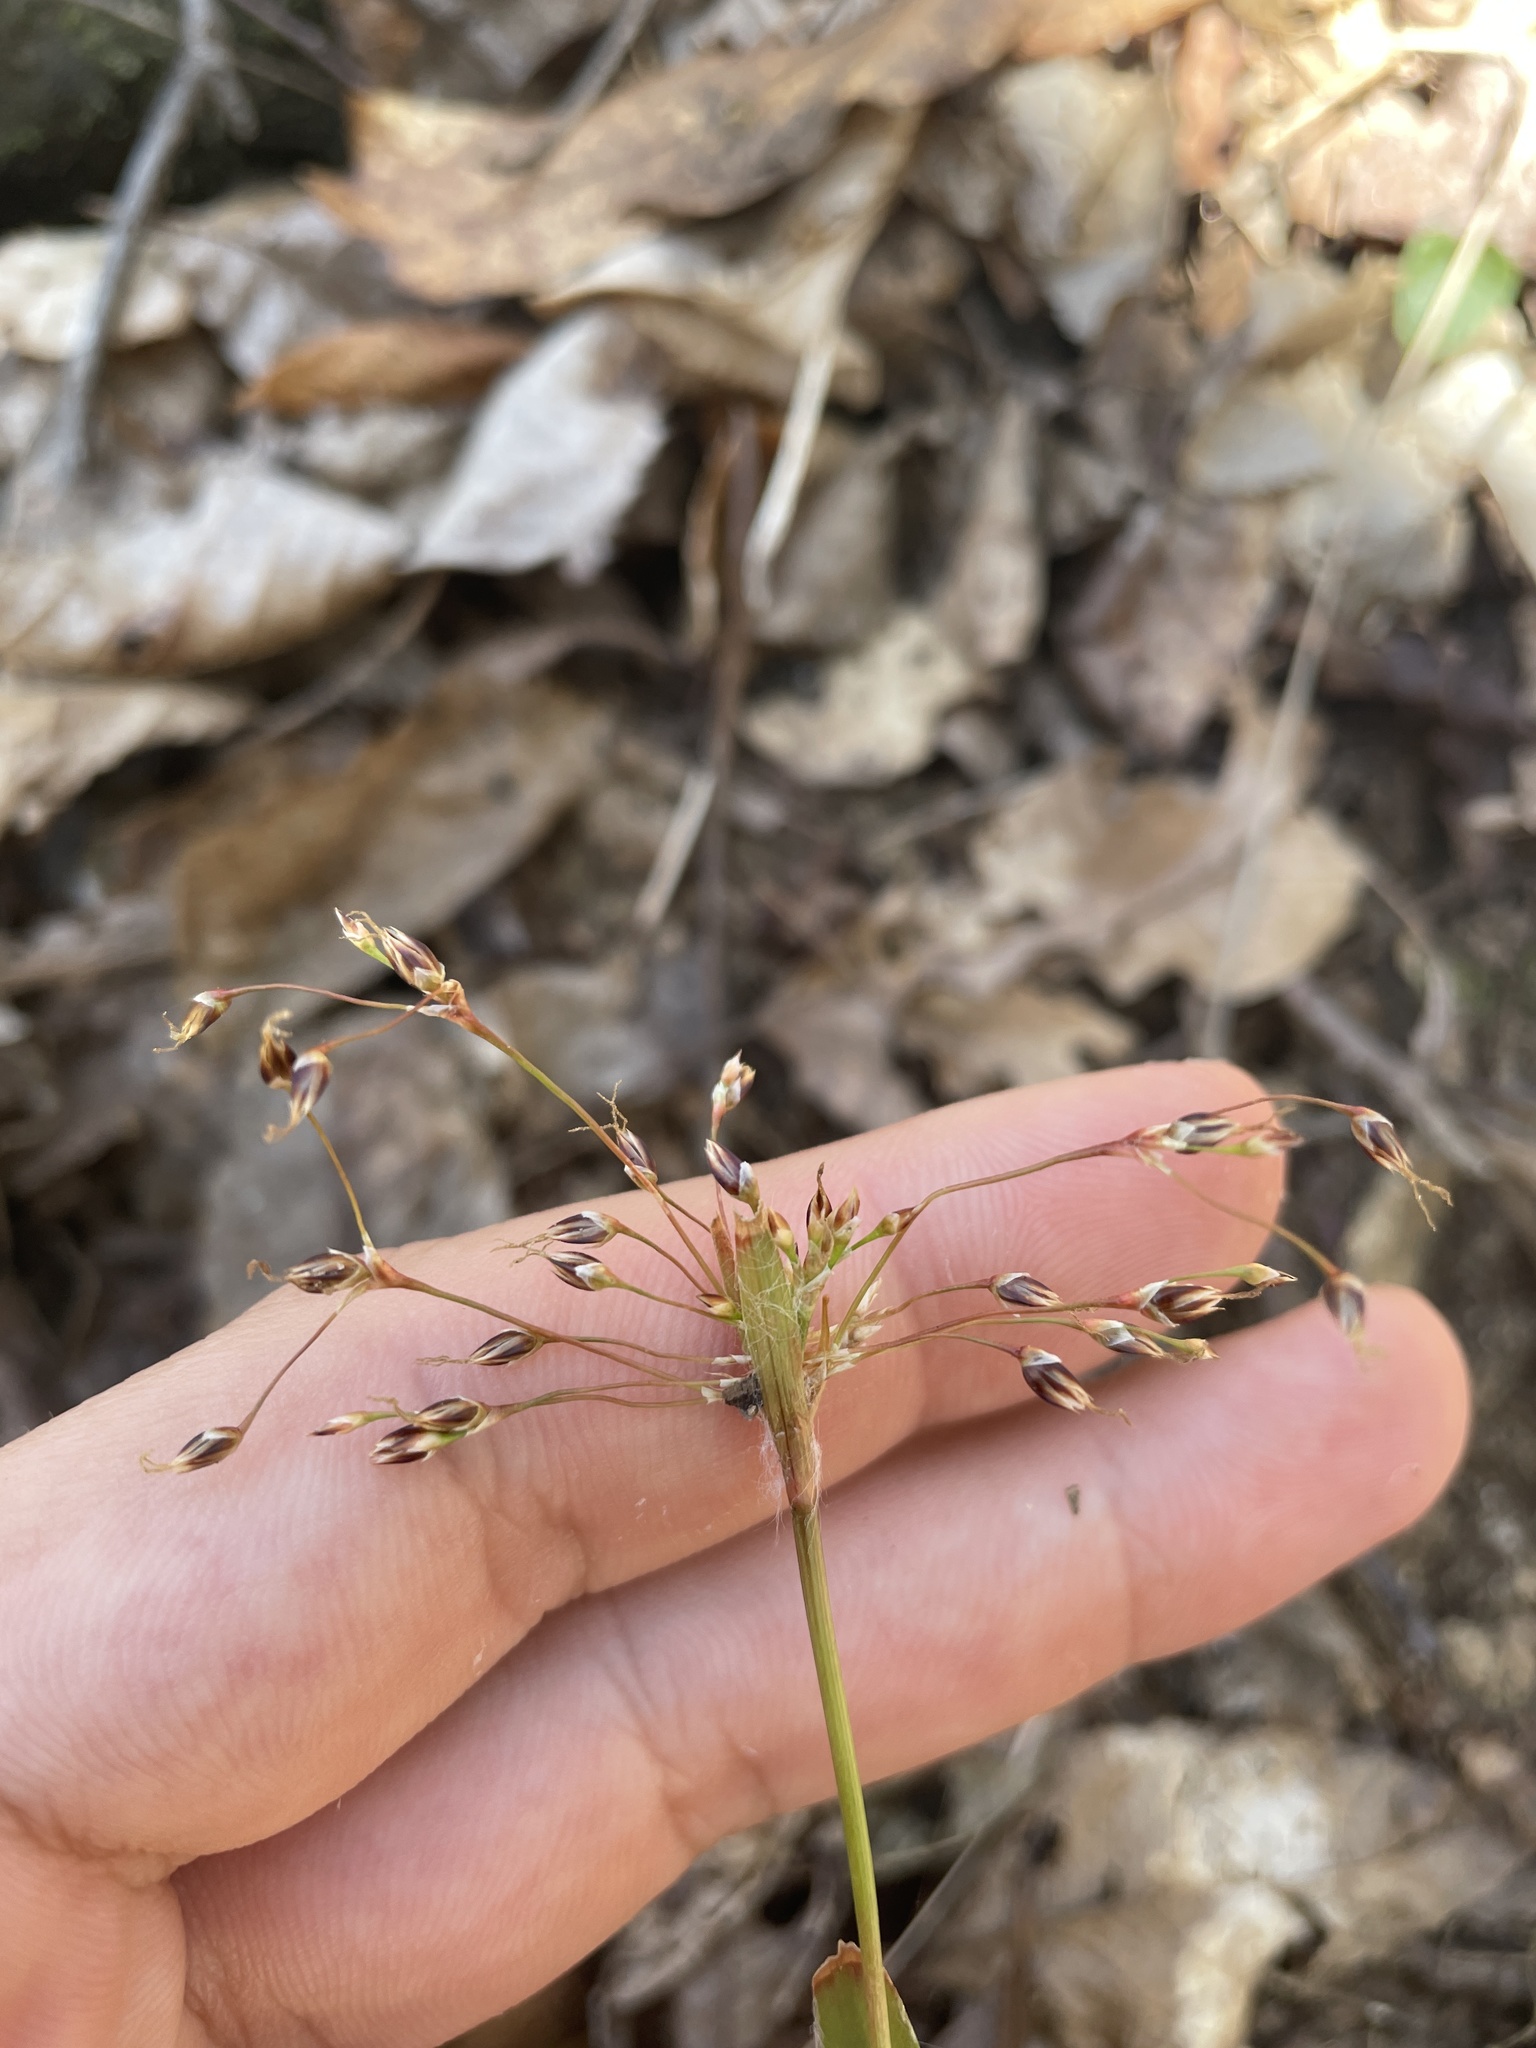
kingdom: Plantae
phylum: Tracheophyta
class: Liliopsida
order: Poales
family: Juncaceae
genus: Luzula
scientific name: Luzula acuminata
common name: Hairy woodrush
